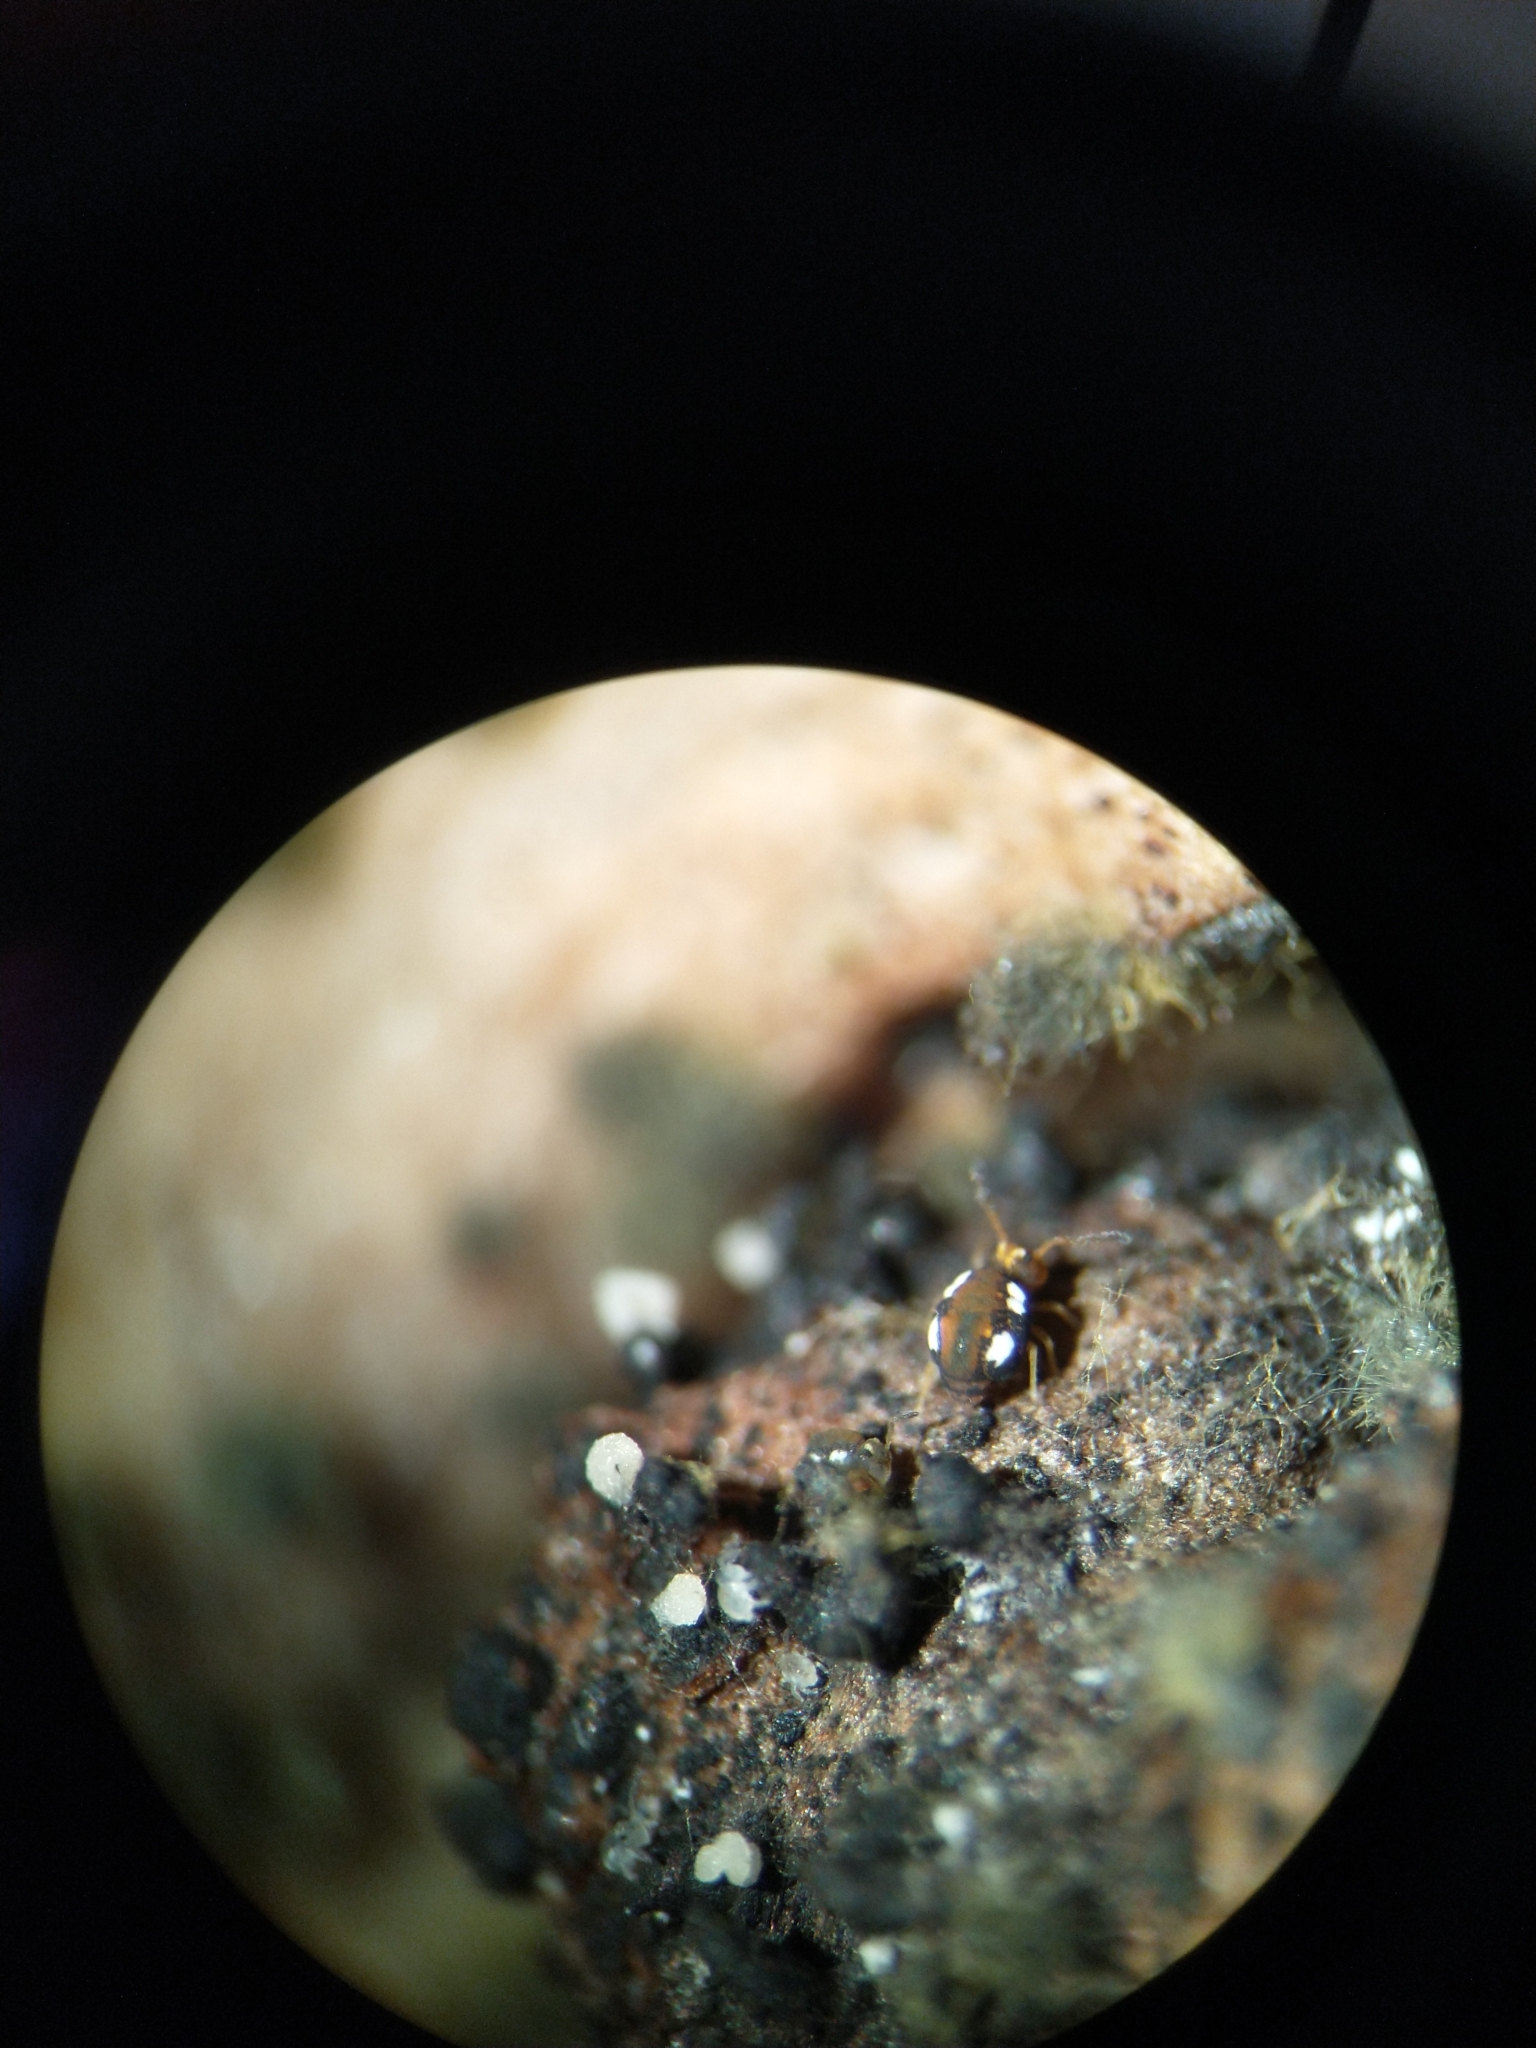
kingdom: Animalia
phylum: Arthropoda
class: Collembola
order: Symphypleona
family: Katiannidae
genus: Sminthurinus
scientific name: Sminthurinus quadrimaculatus
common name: Globular springtail
